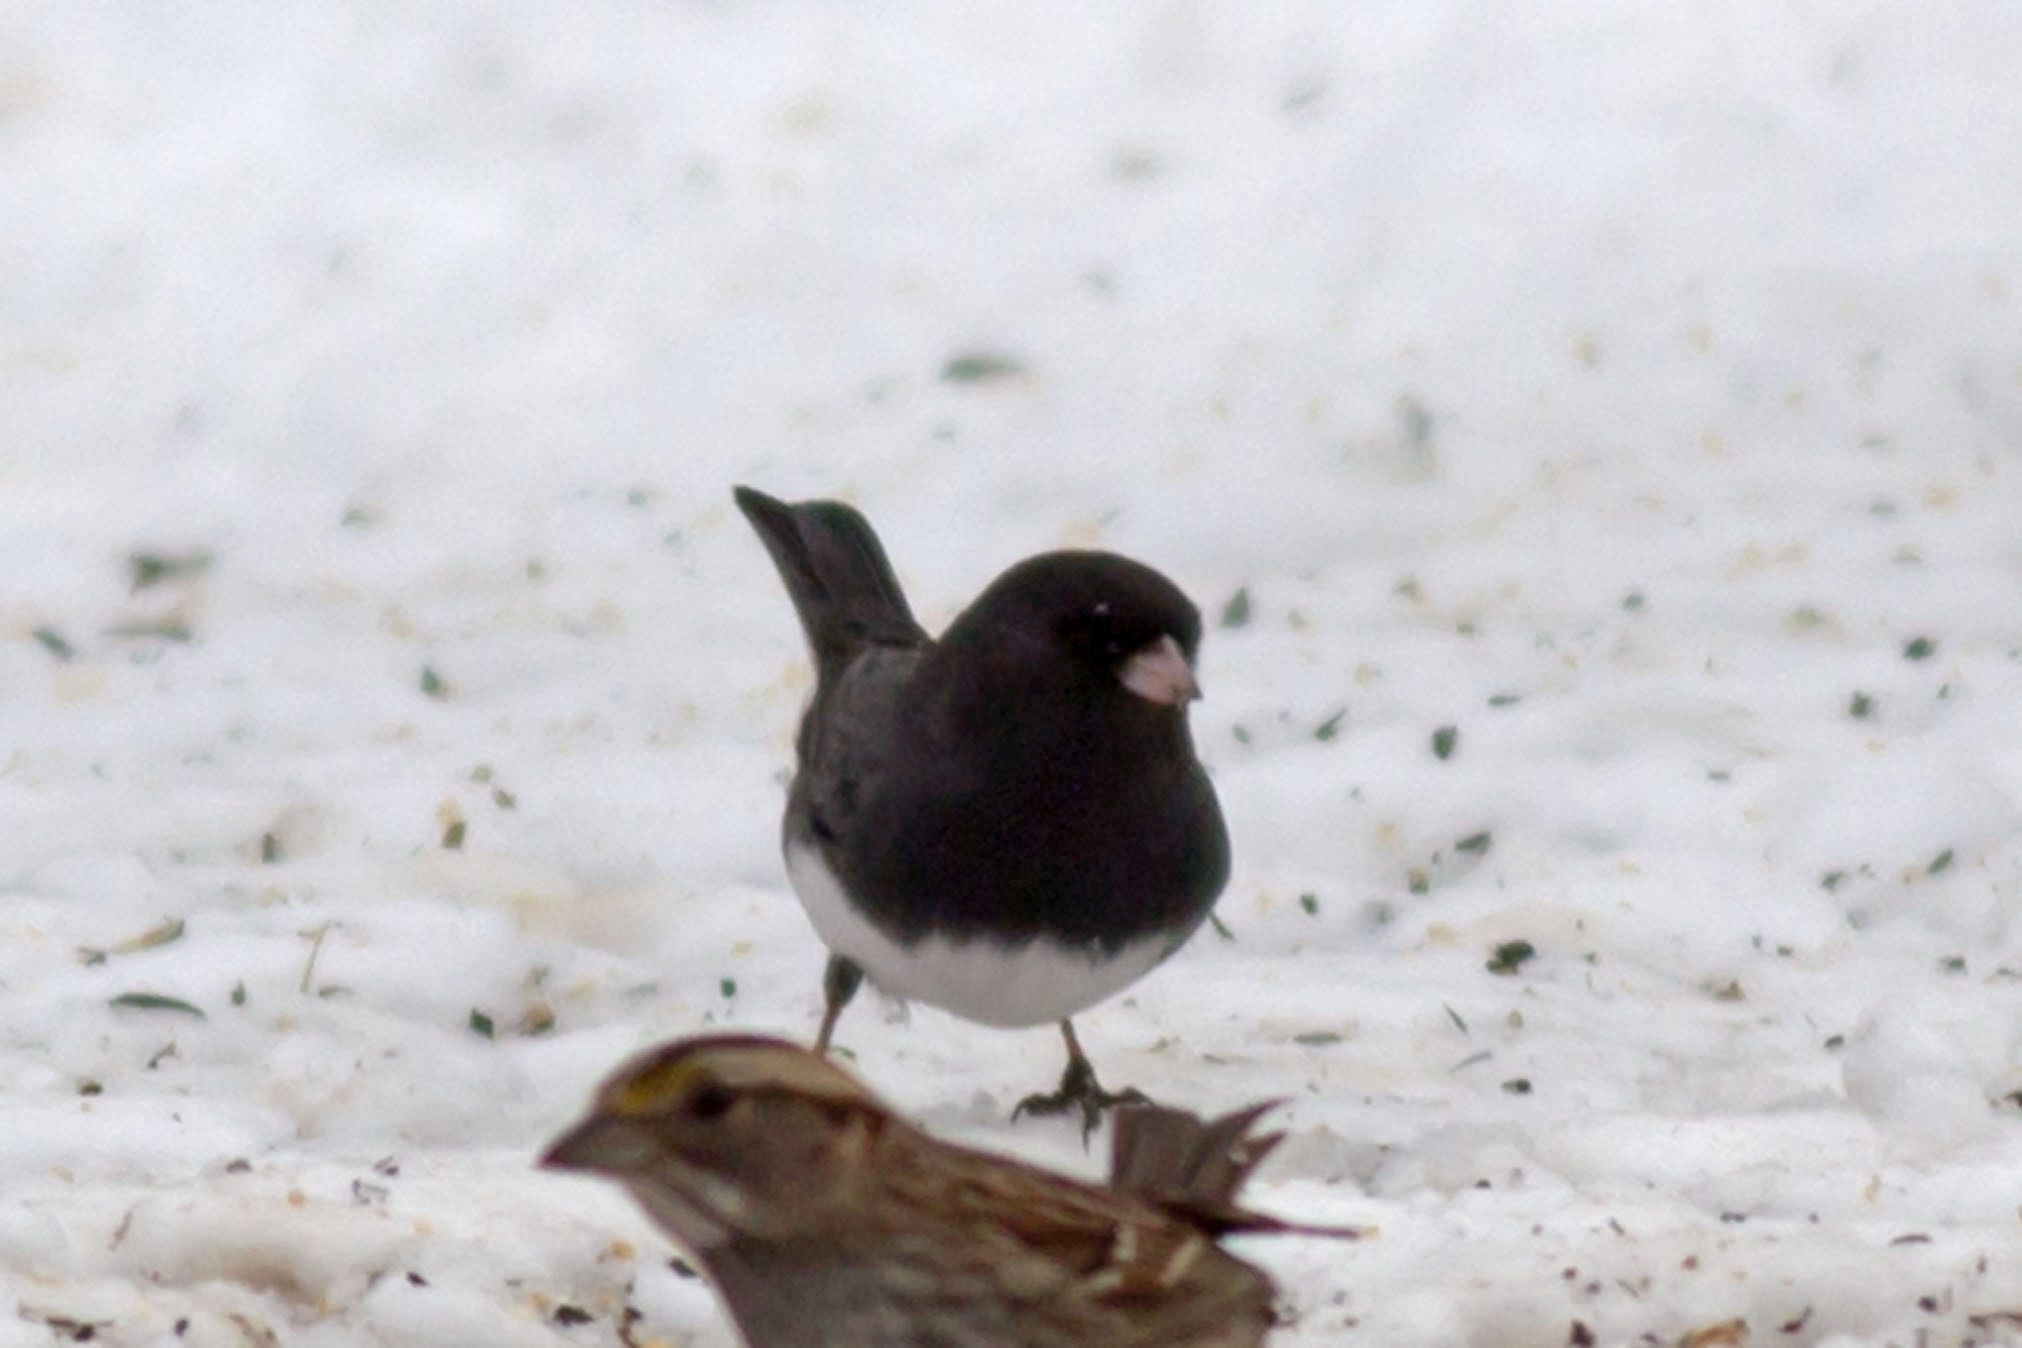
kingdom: Animalia
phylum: Chordata
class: Aves
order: Passeriformes
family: Passerellidae
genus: Junco
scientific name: Junco hyemalis
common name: Dark-eyed junco
